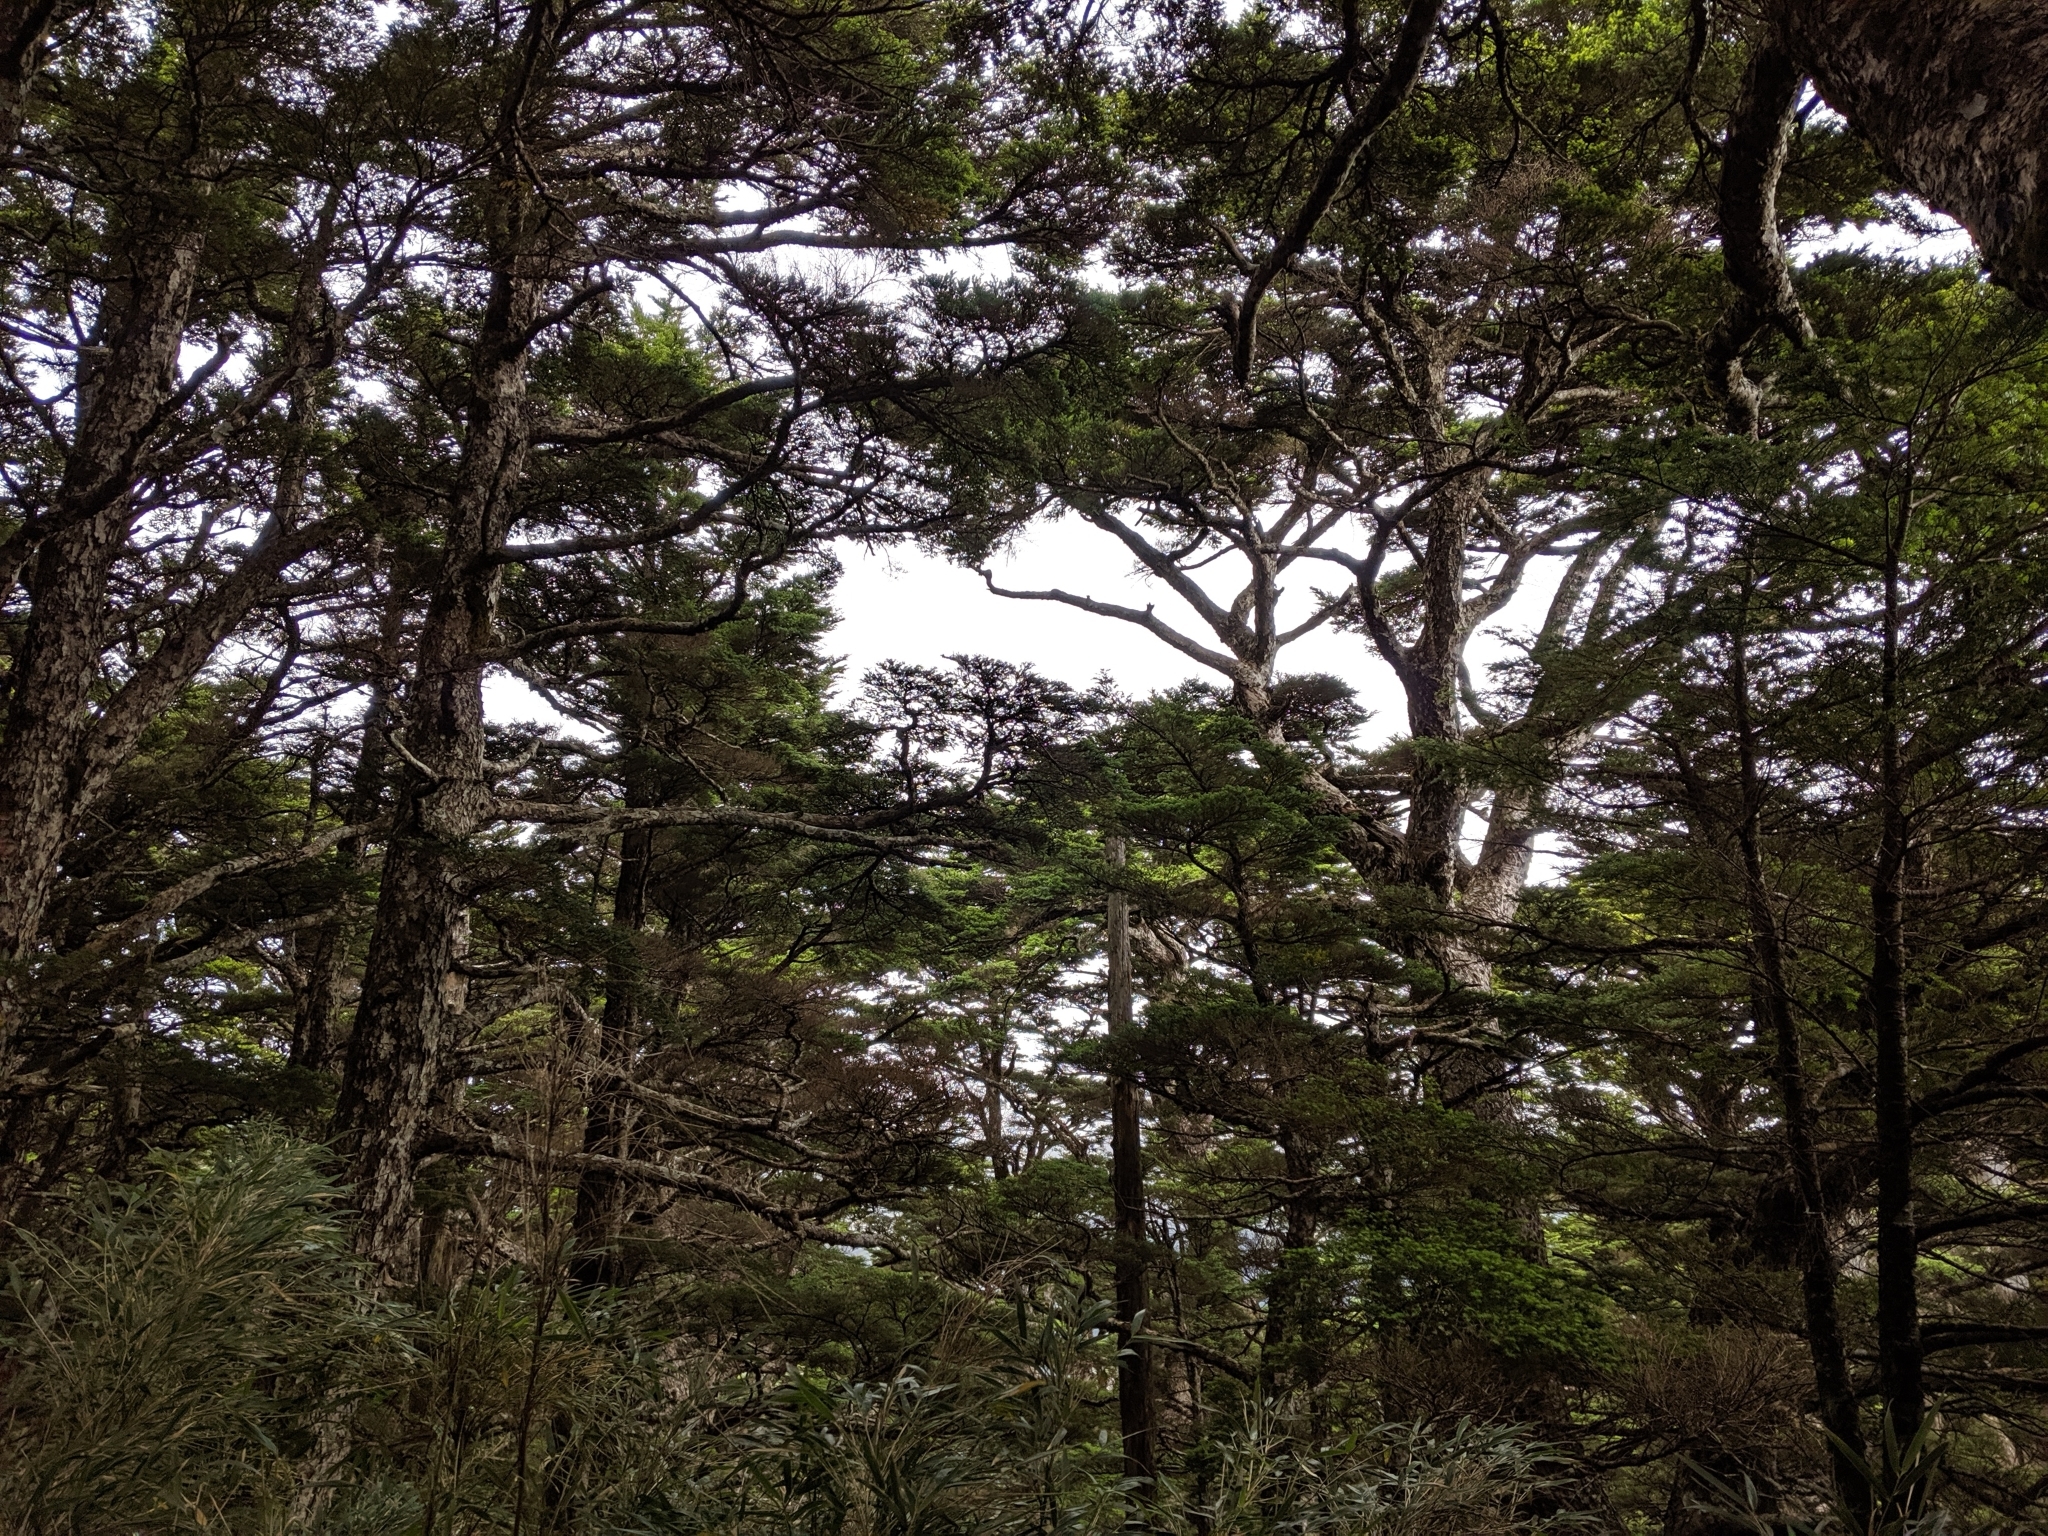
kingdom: Plantae
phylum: Tracheophyta
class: Pinopsida
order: Pinales
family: Pinaceae
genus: Tsuga
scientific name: Tsuga chinensis
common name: Chinese hemlock
